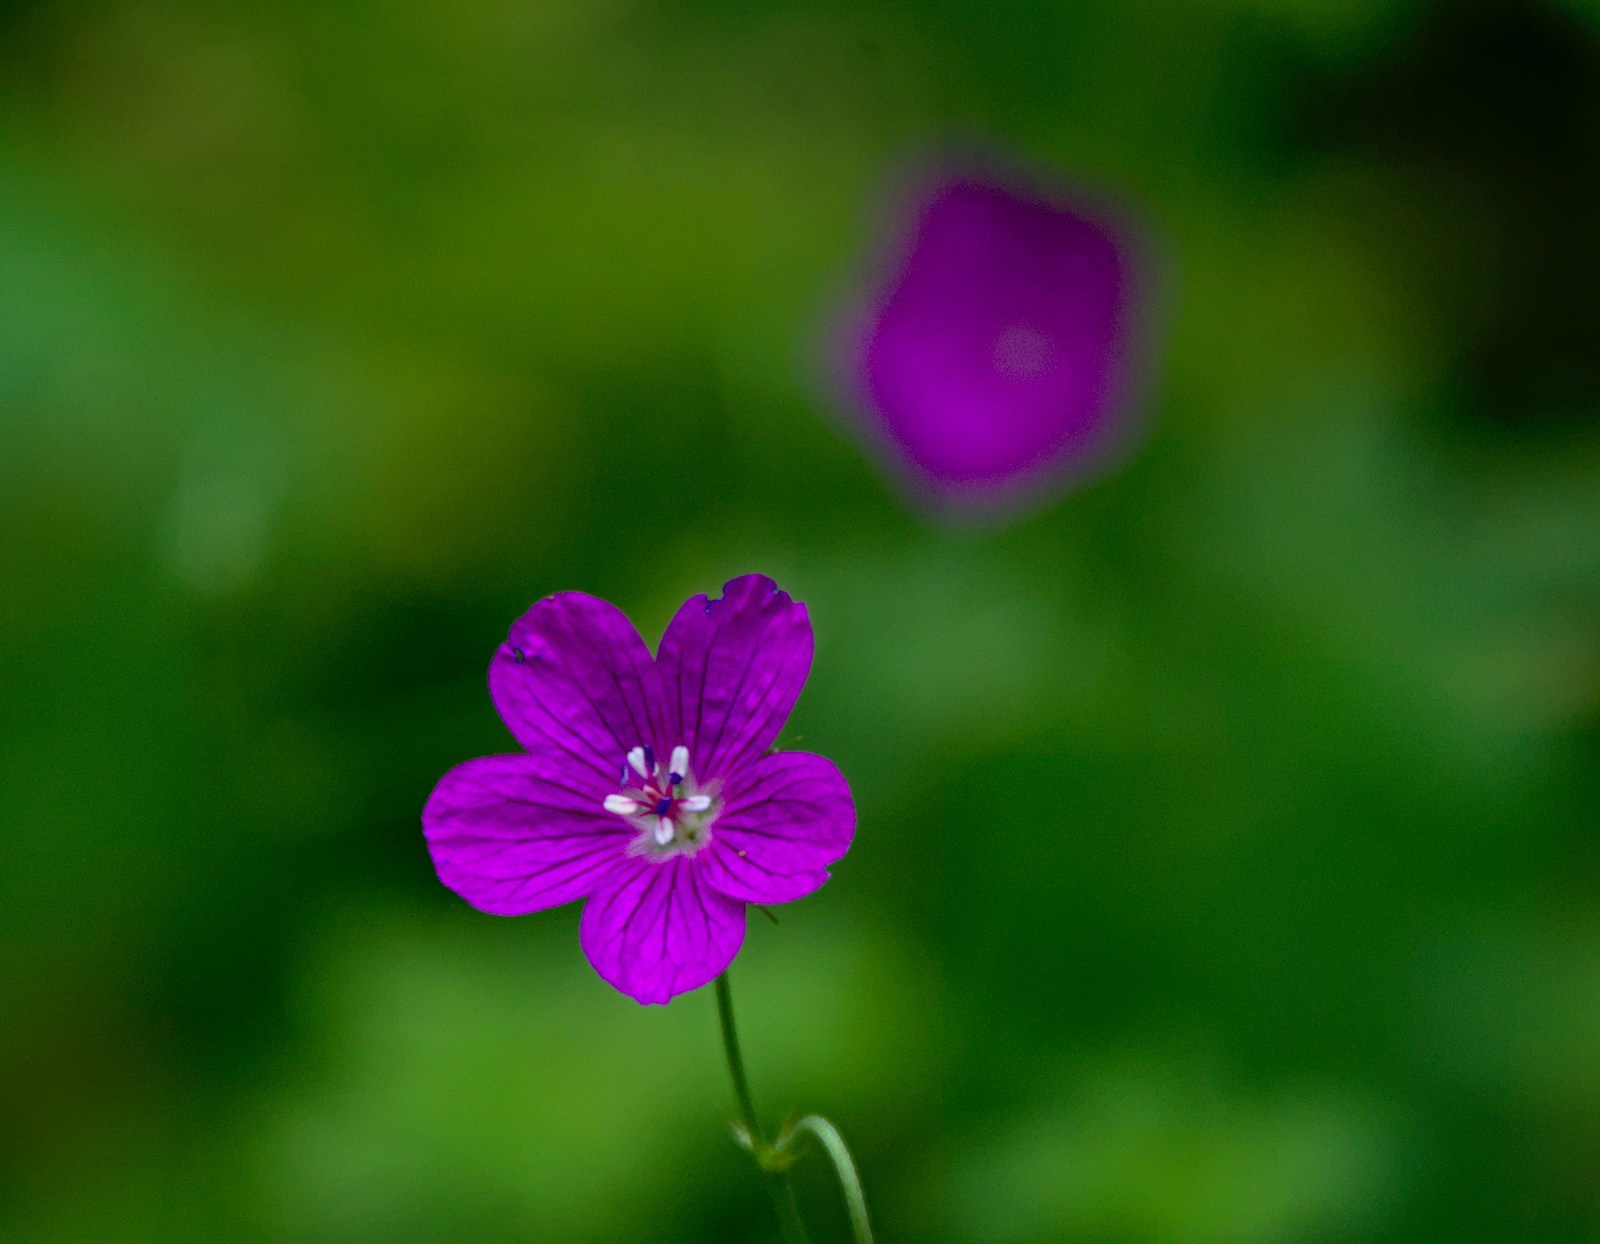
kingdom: Plantae
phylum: Tracheophyta
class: Magnoliopsida
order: Geraniales
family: Geraniaceae
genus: Geranium
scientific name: Geranium palustre
